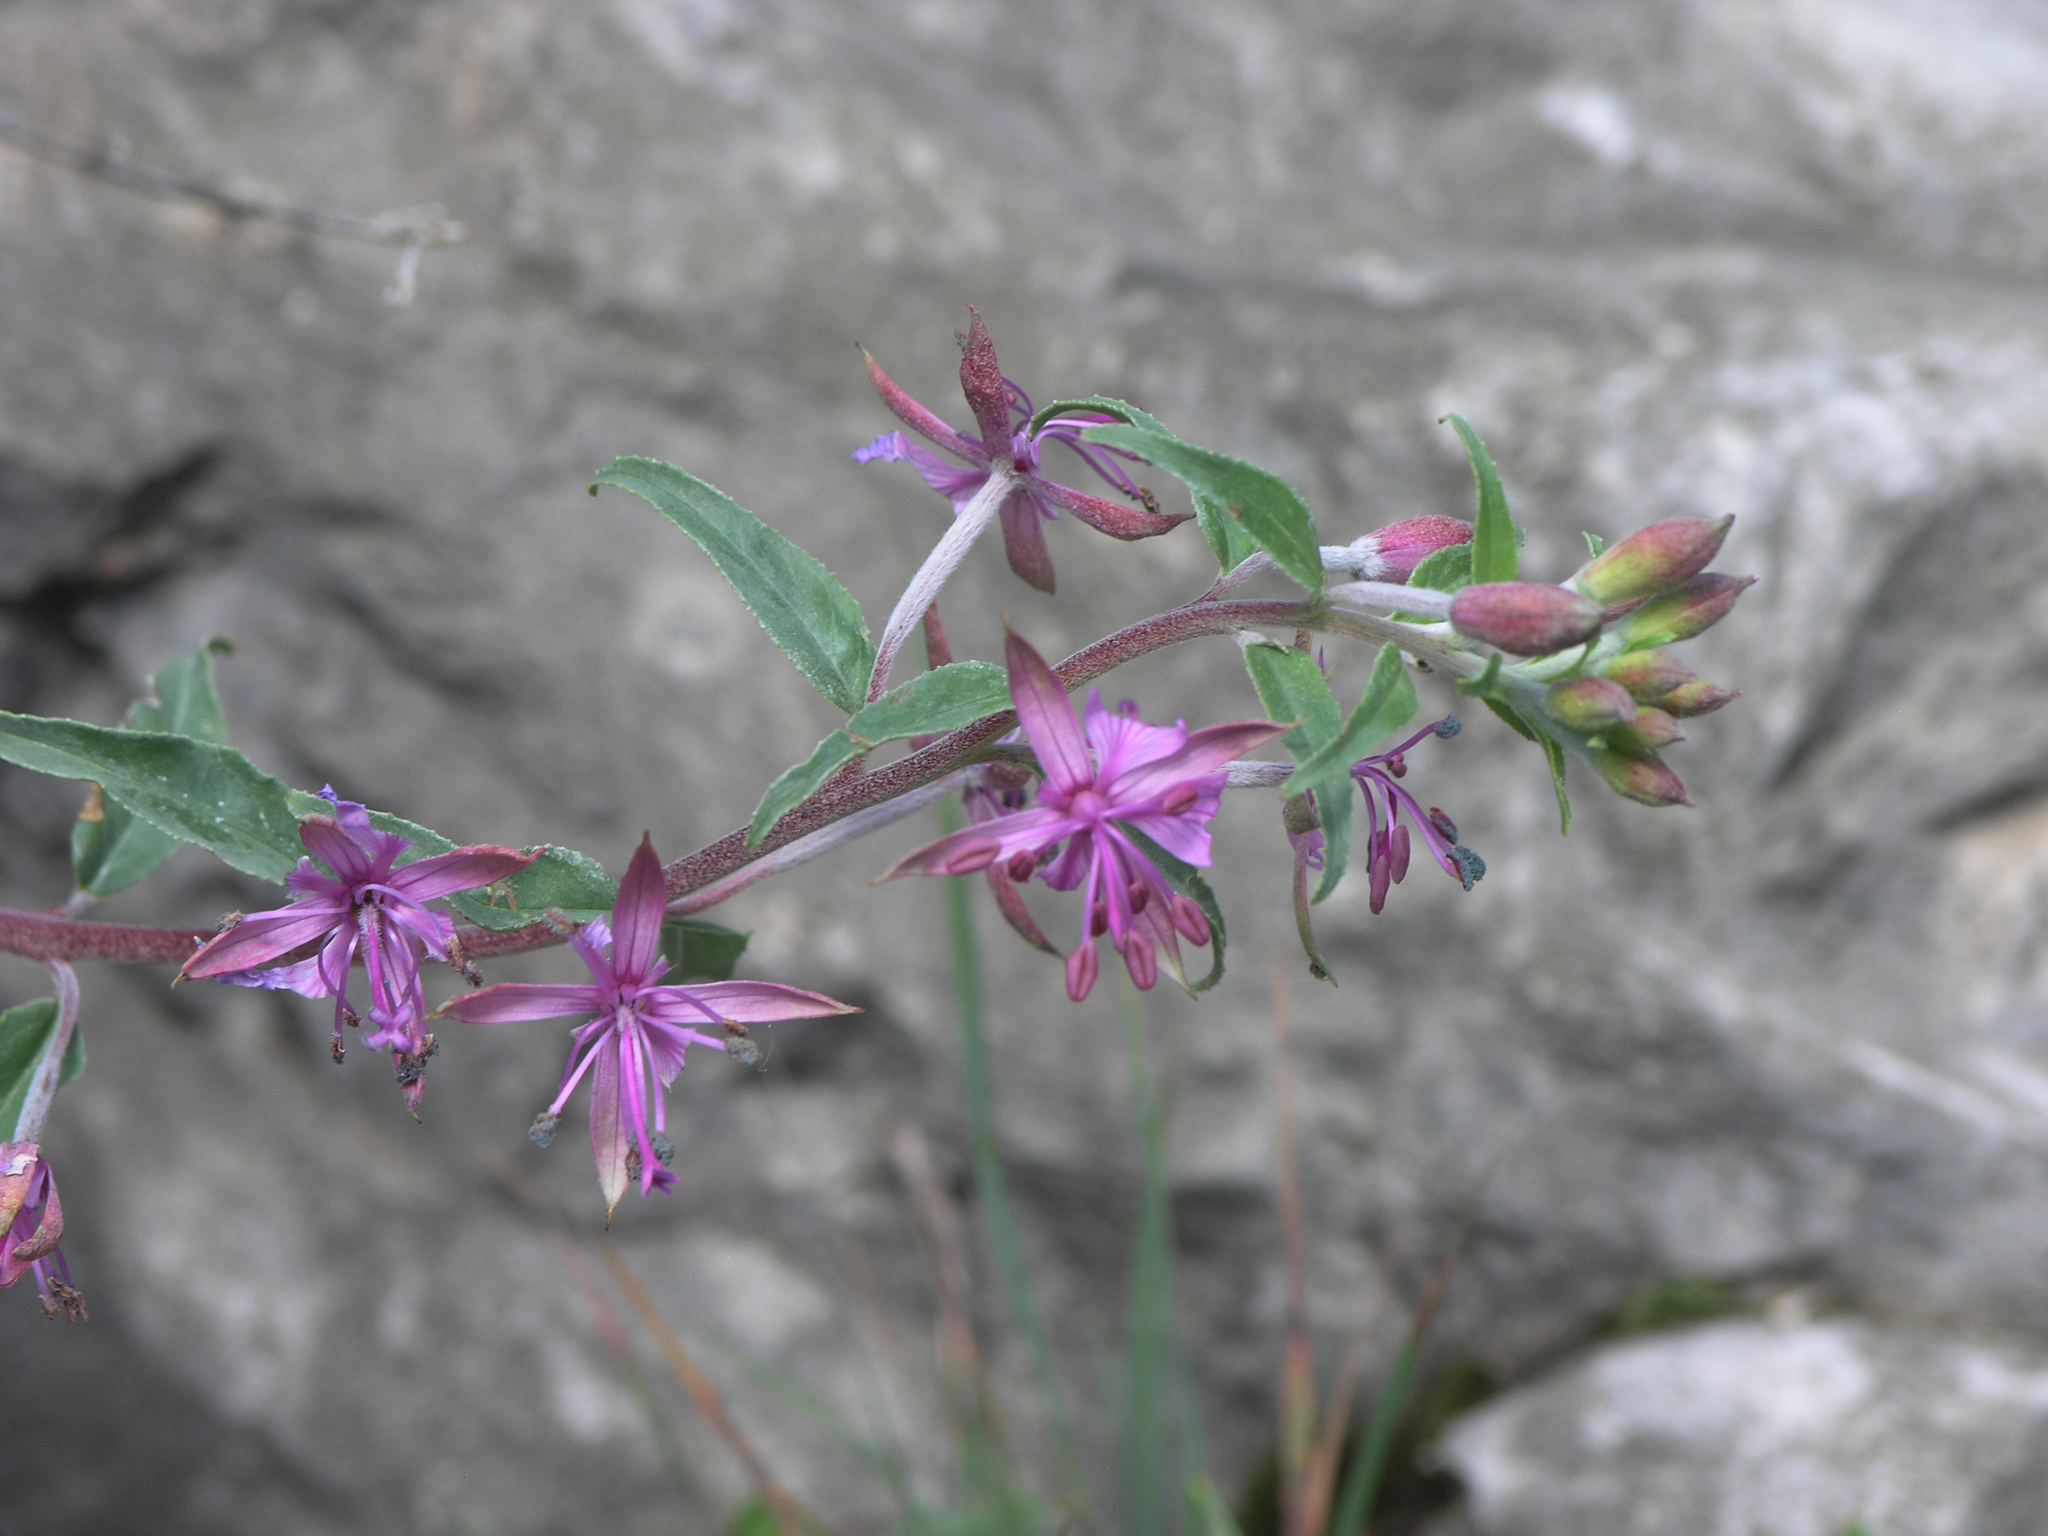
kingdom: Plantae
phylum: Tracheophyta
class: Magnoliopsida
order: Myrtales
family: Onagraceae
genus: Chamaenerion
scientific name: Chamaenerion colchicum
